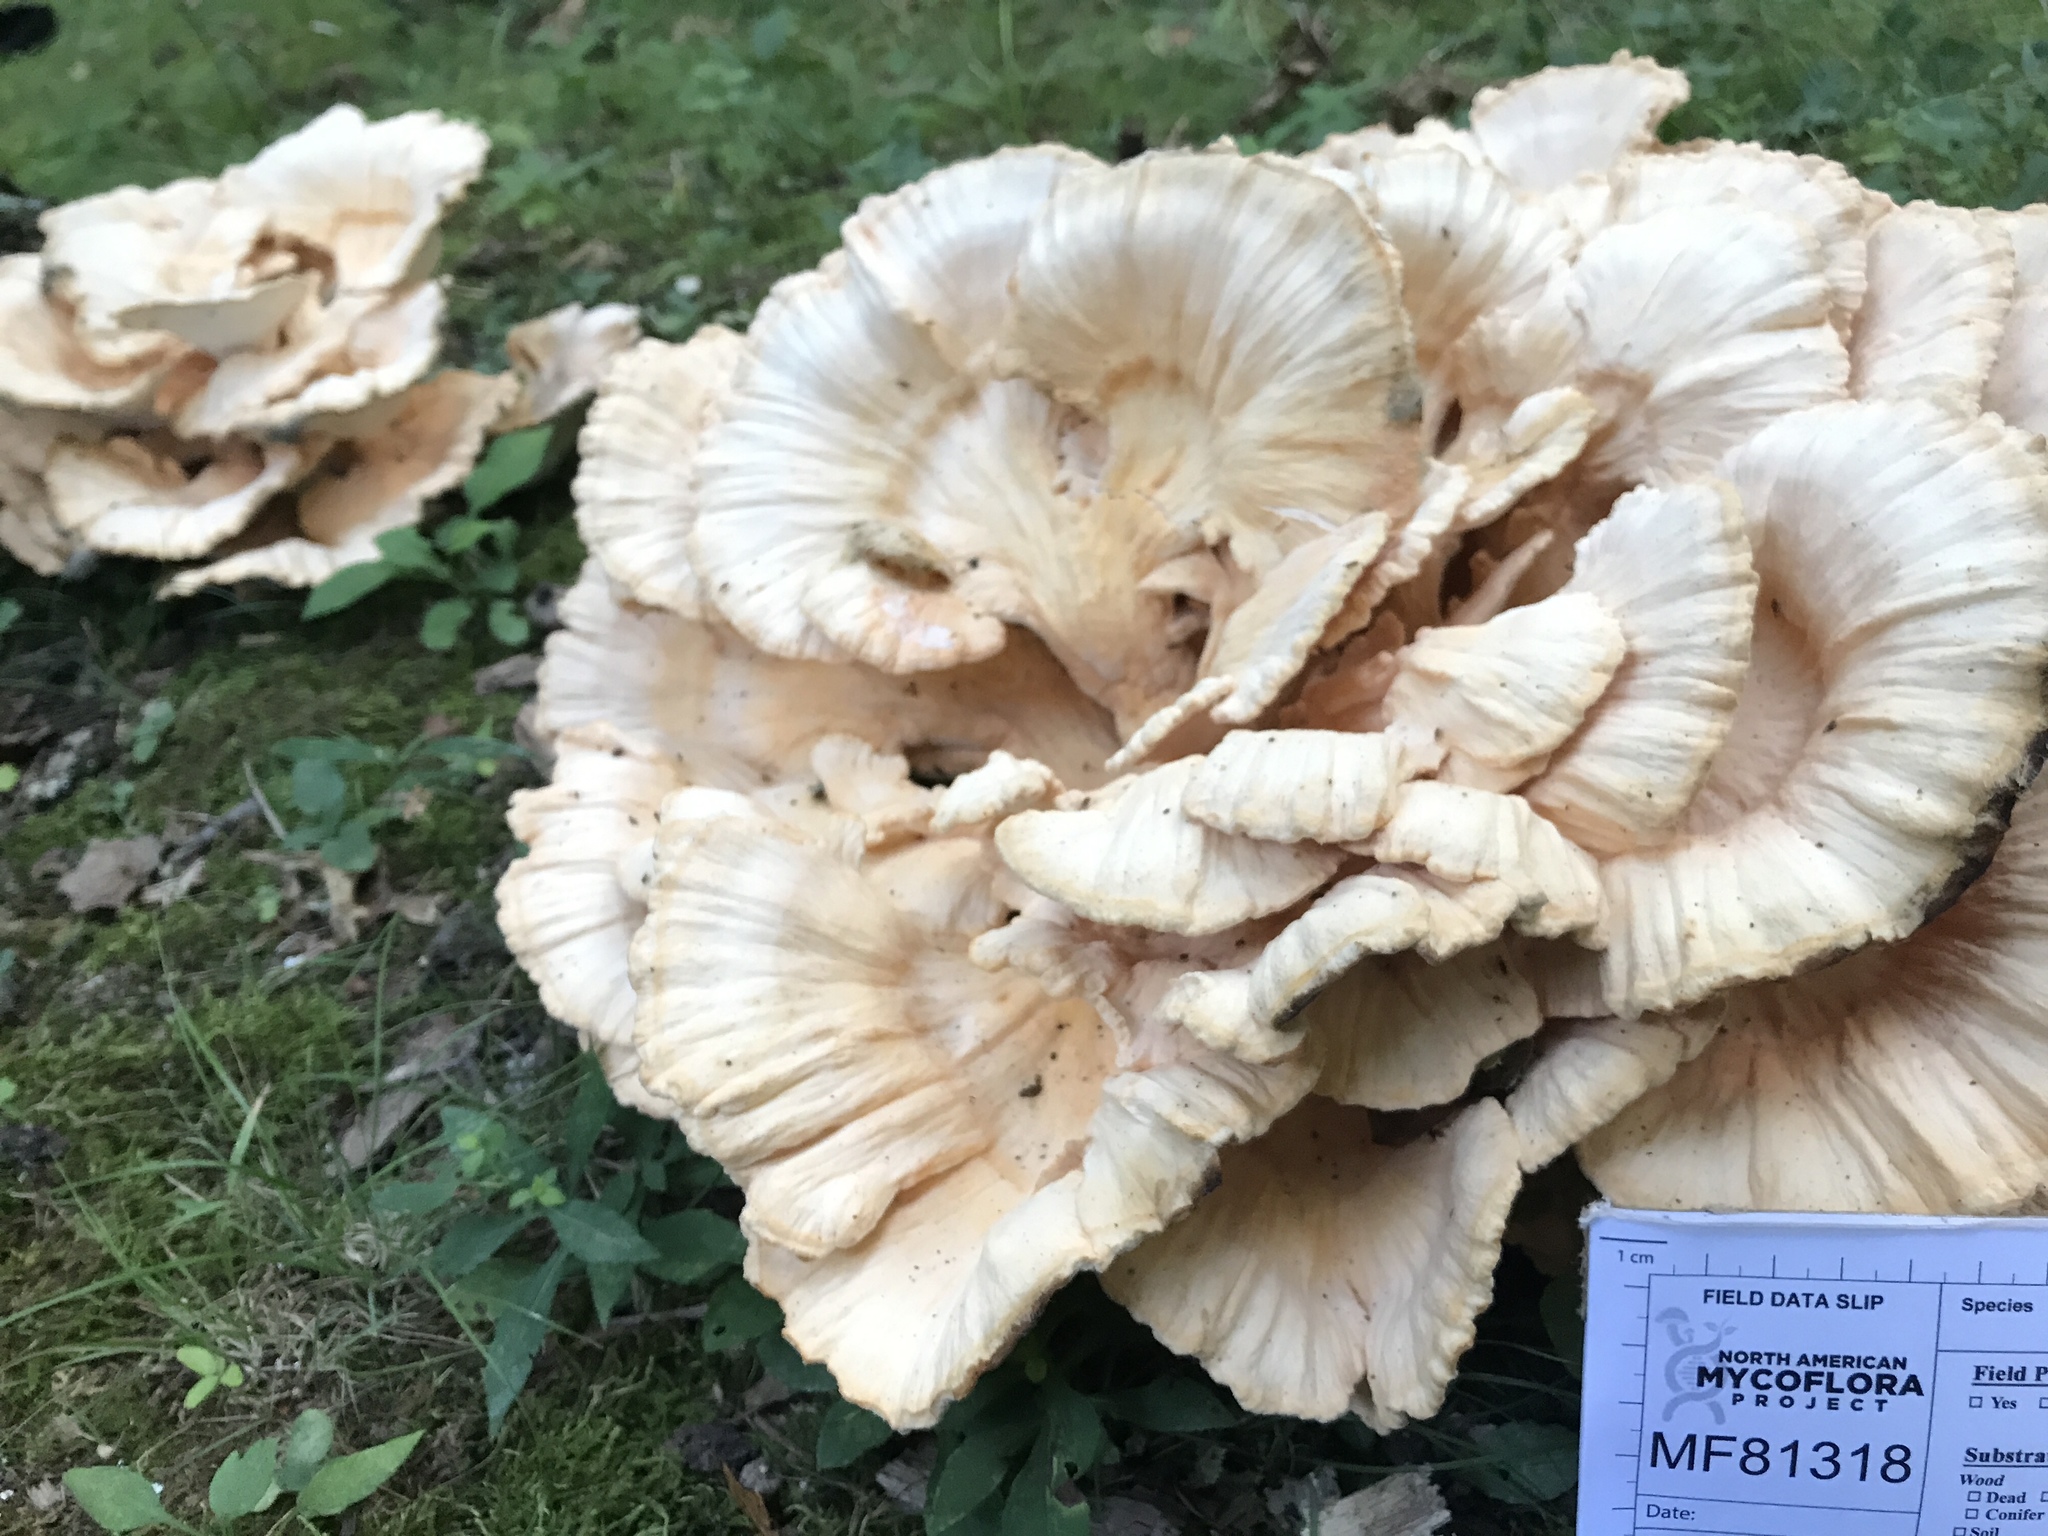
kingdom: Fungi
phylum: Basidiomycota
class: Agaricomycetes
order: Polyporales
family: Laetiporaceae
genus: Laetiporus
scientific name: Laetiporus sulphureus
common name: Chicken of the woods
